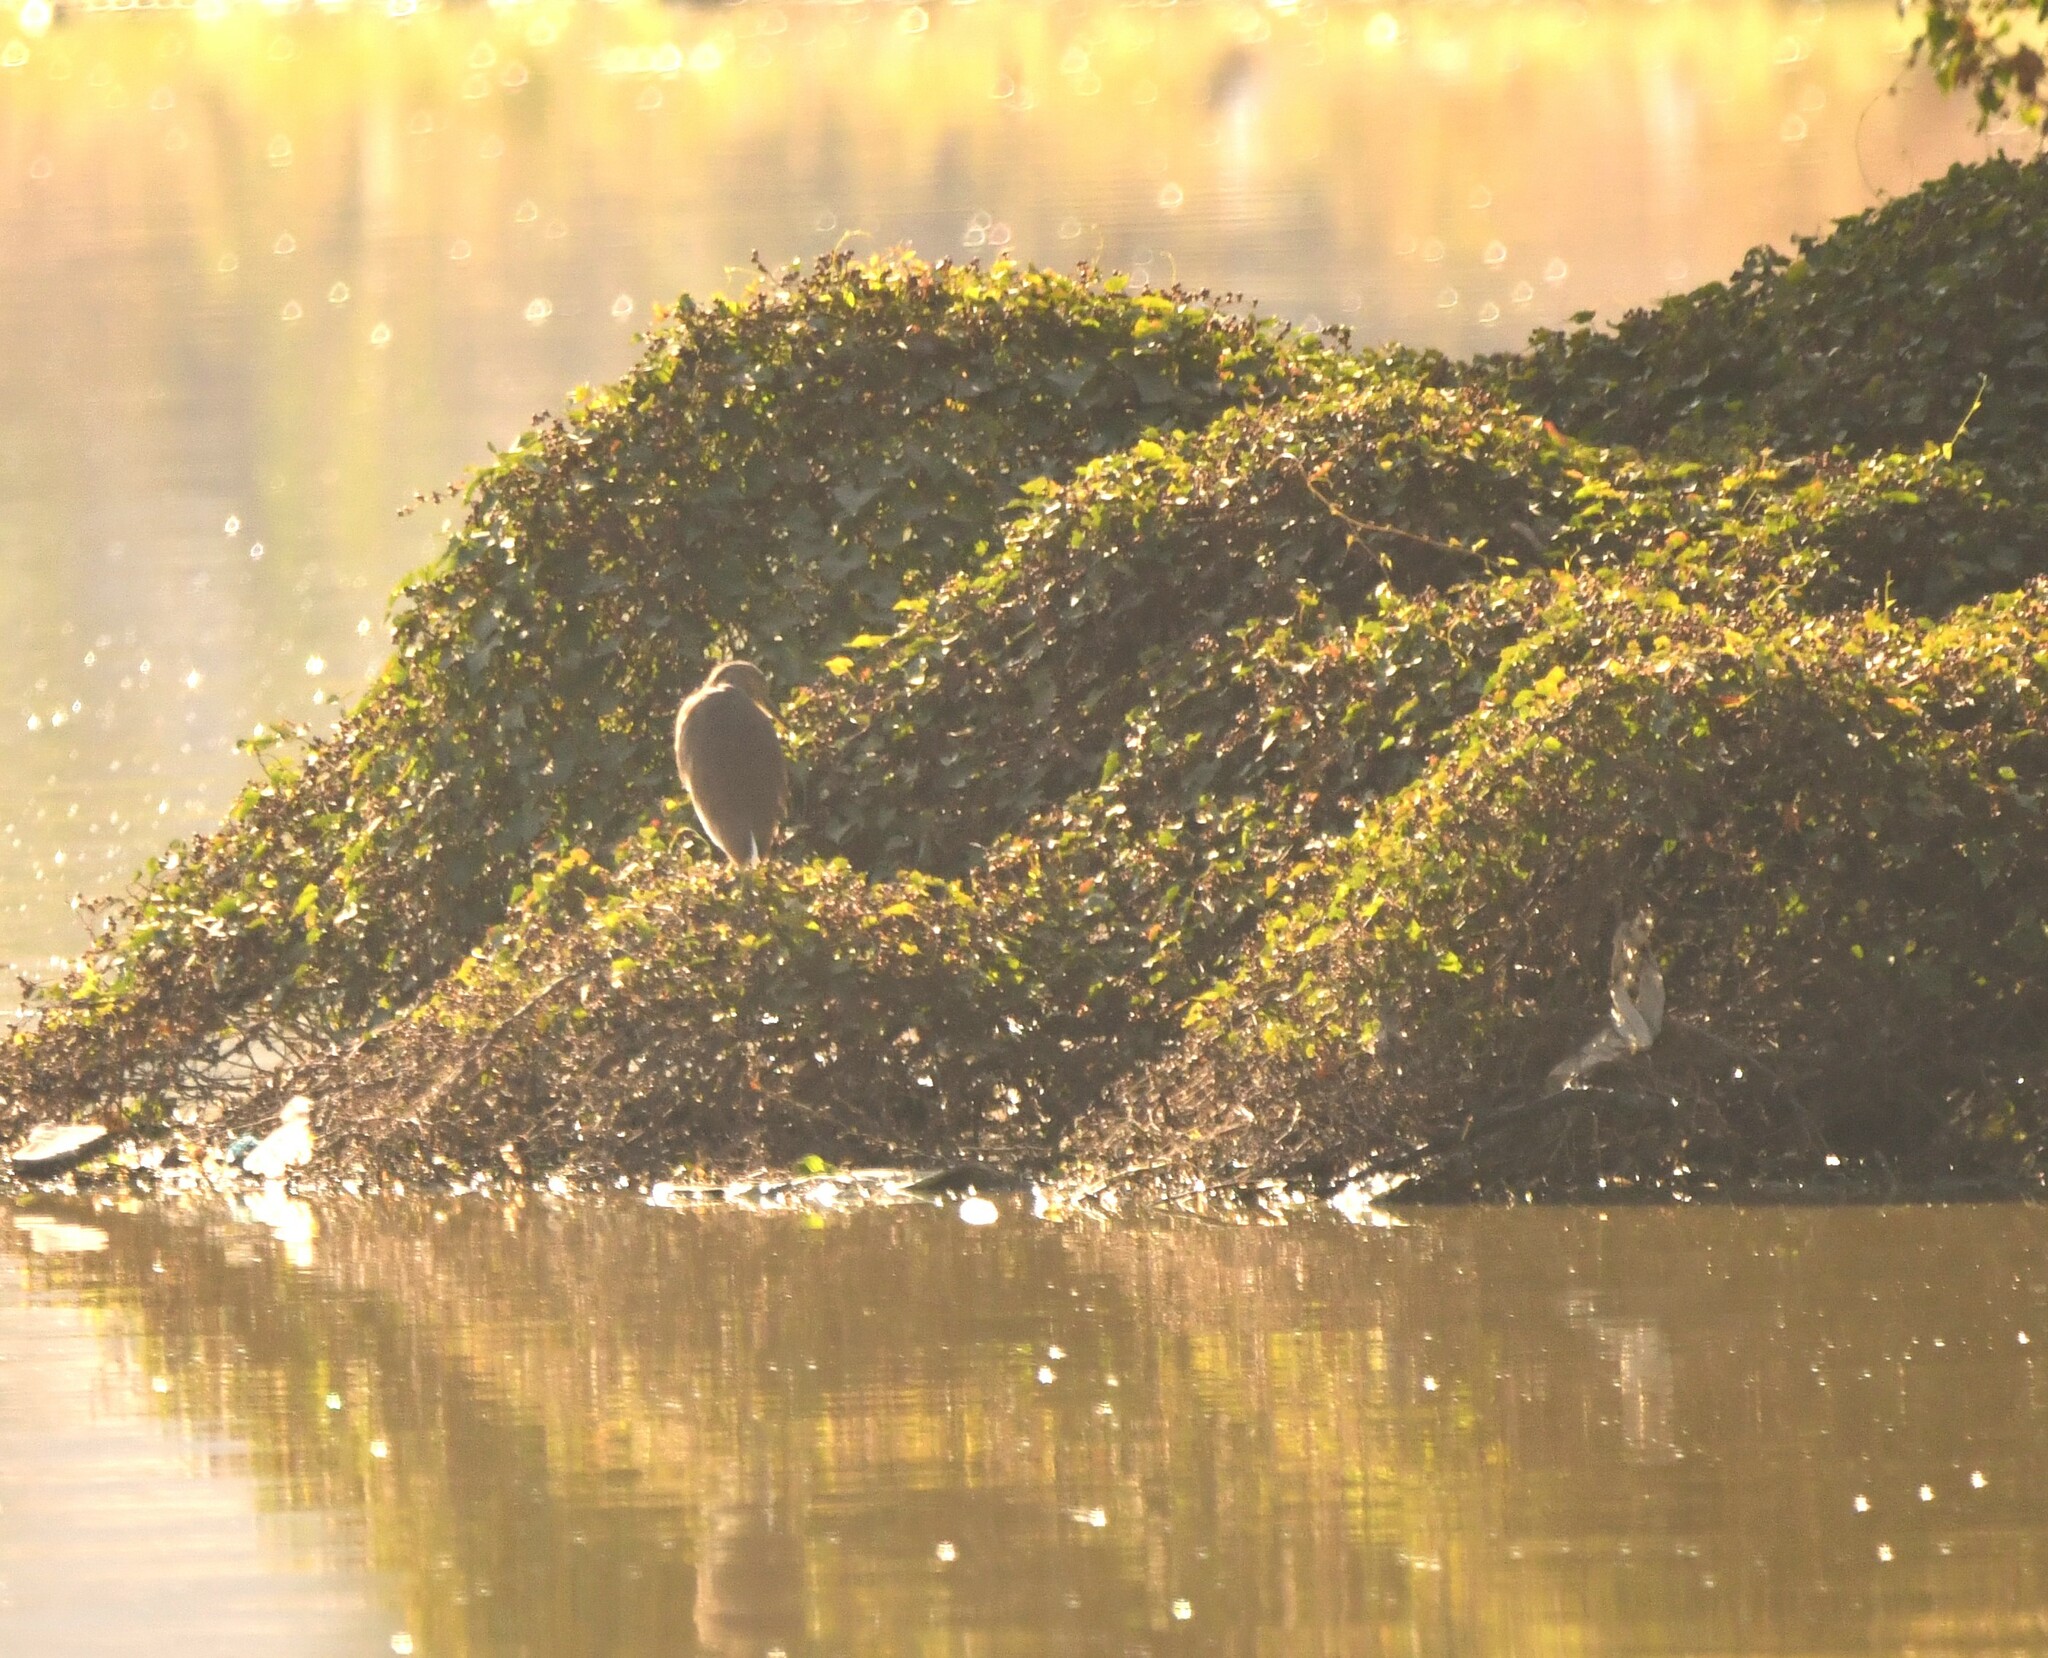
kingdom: Animalia
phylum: Chordata
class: Aves
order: Pelecaniformes
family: Ardeidae
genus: Ardeola
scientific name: Ardeola grayii
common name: Indian pond heron
